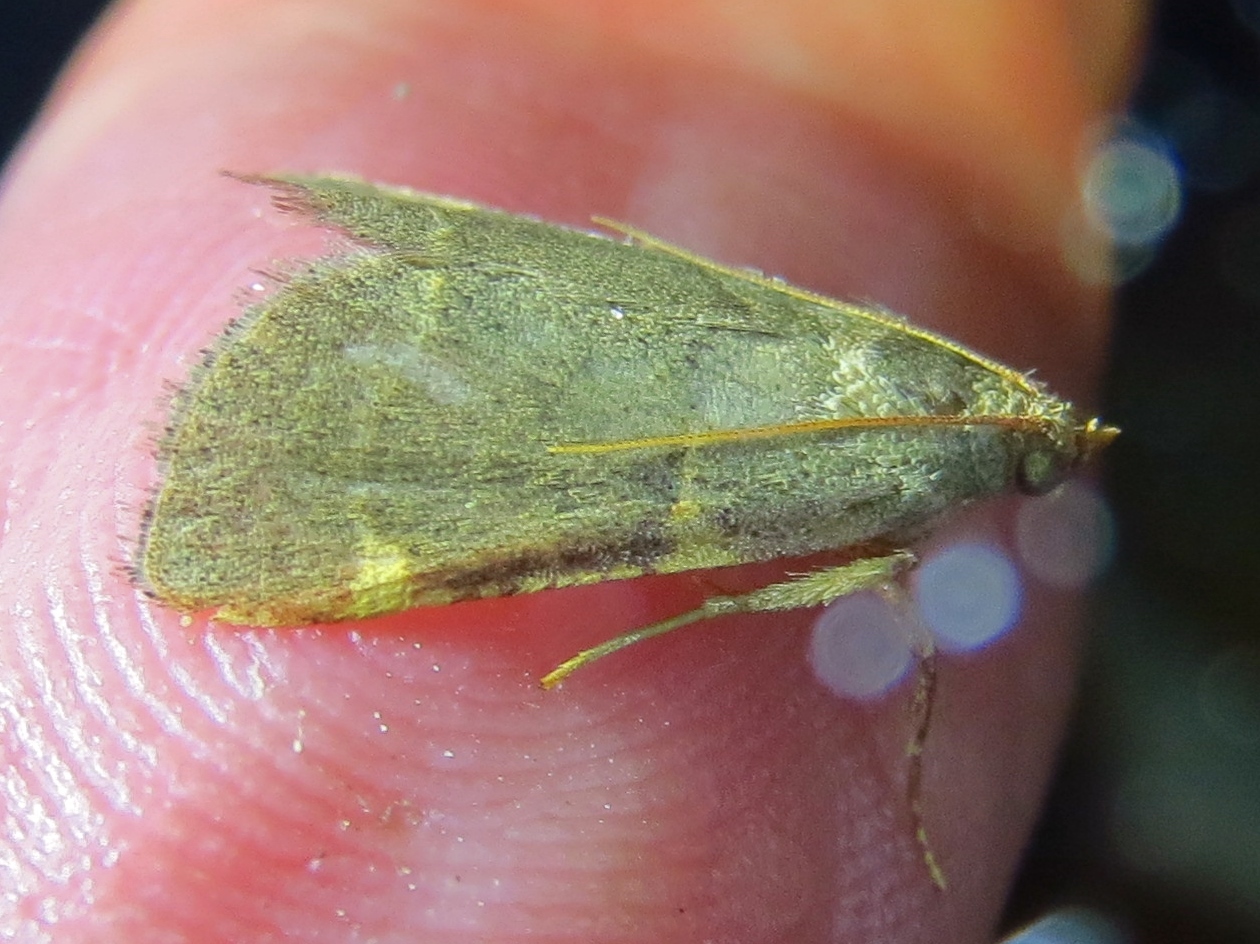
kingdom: Animalia
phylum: Arthropoda
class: Insecta
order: Lepidoptera
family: Pyralidae
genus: Hypsopygia
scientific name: Hypsopygia binodulalis
